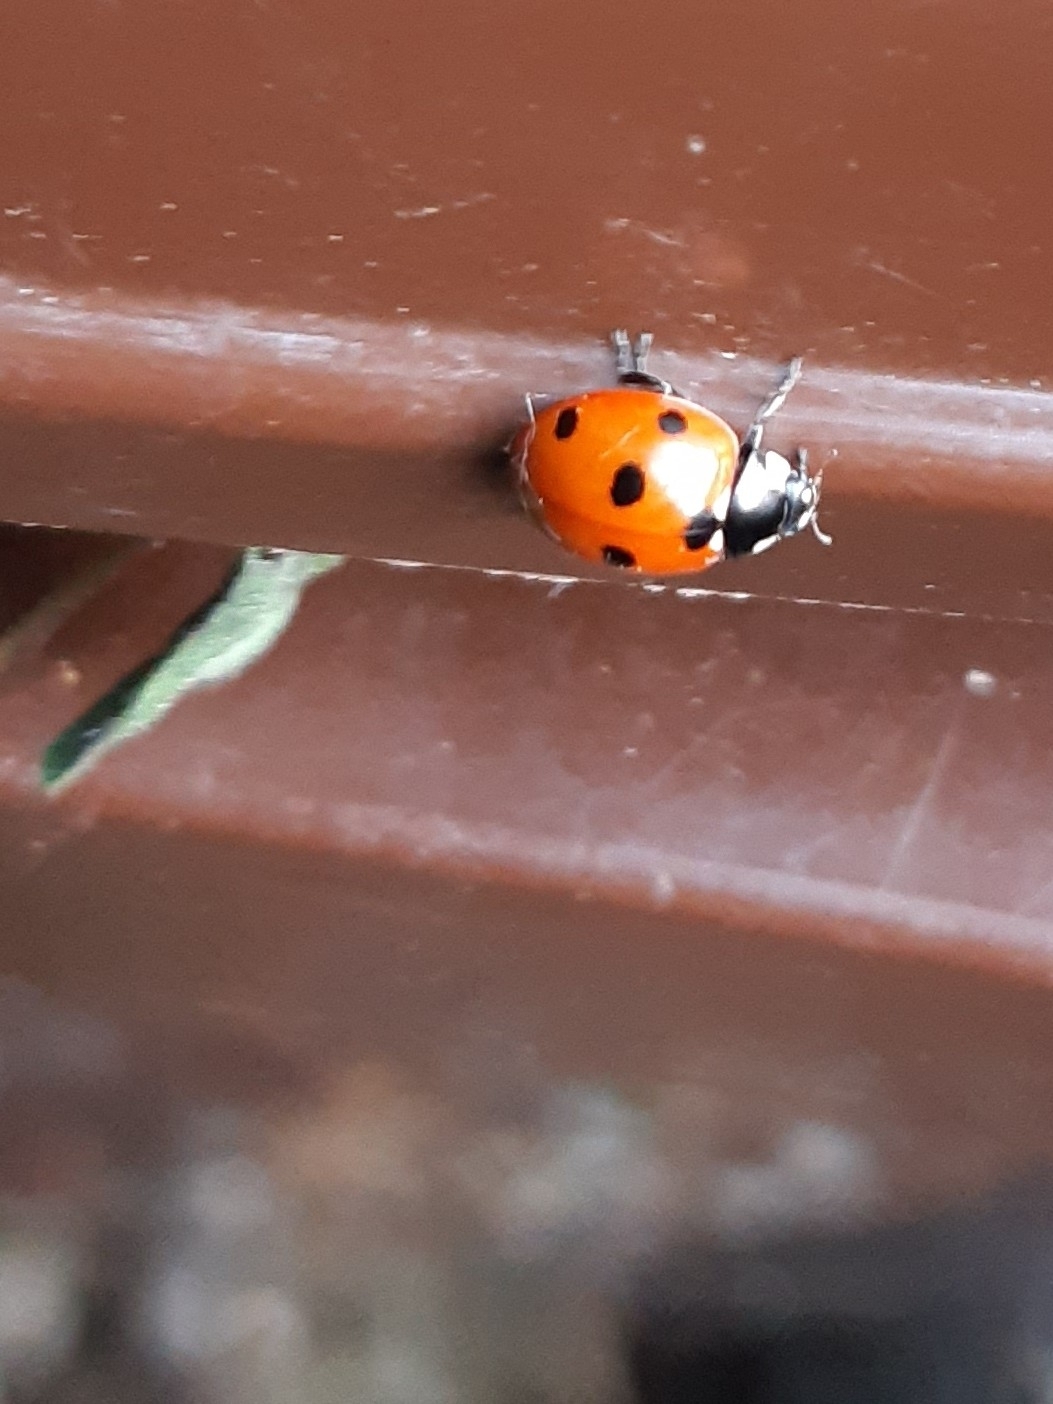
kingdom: Animalia
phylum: Arthropoda
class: Insecta
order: Coleoptera
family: Coccinellidae
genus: Coccinella
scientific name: Coccinella septempunctata
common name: Sevenspotted lady beetle
